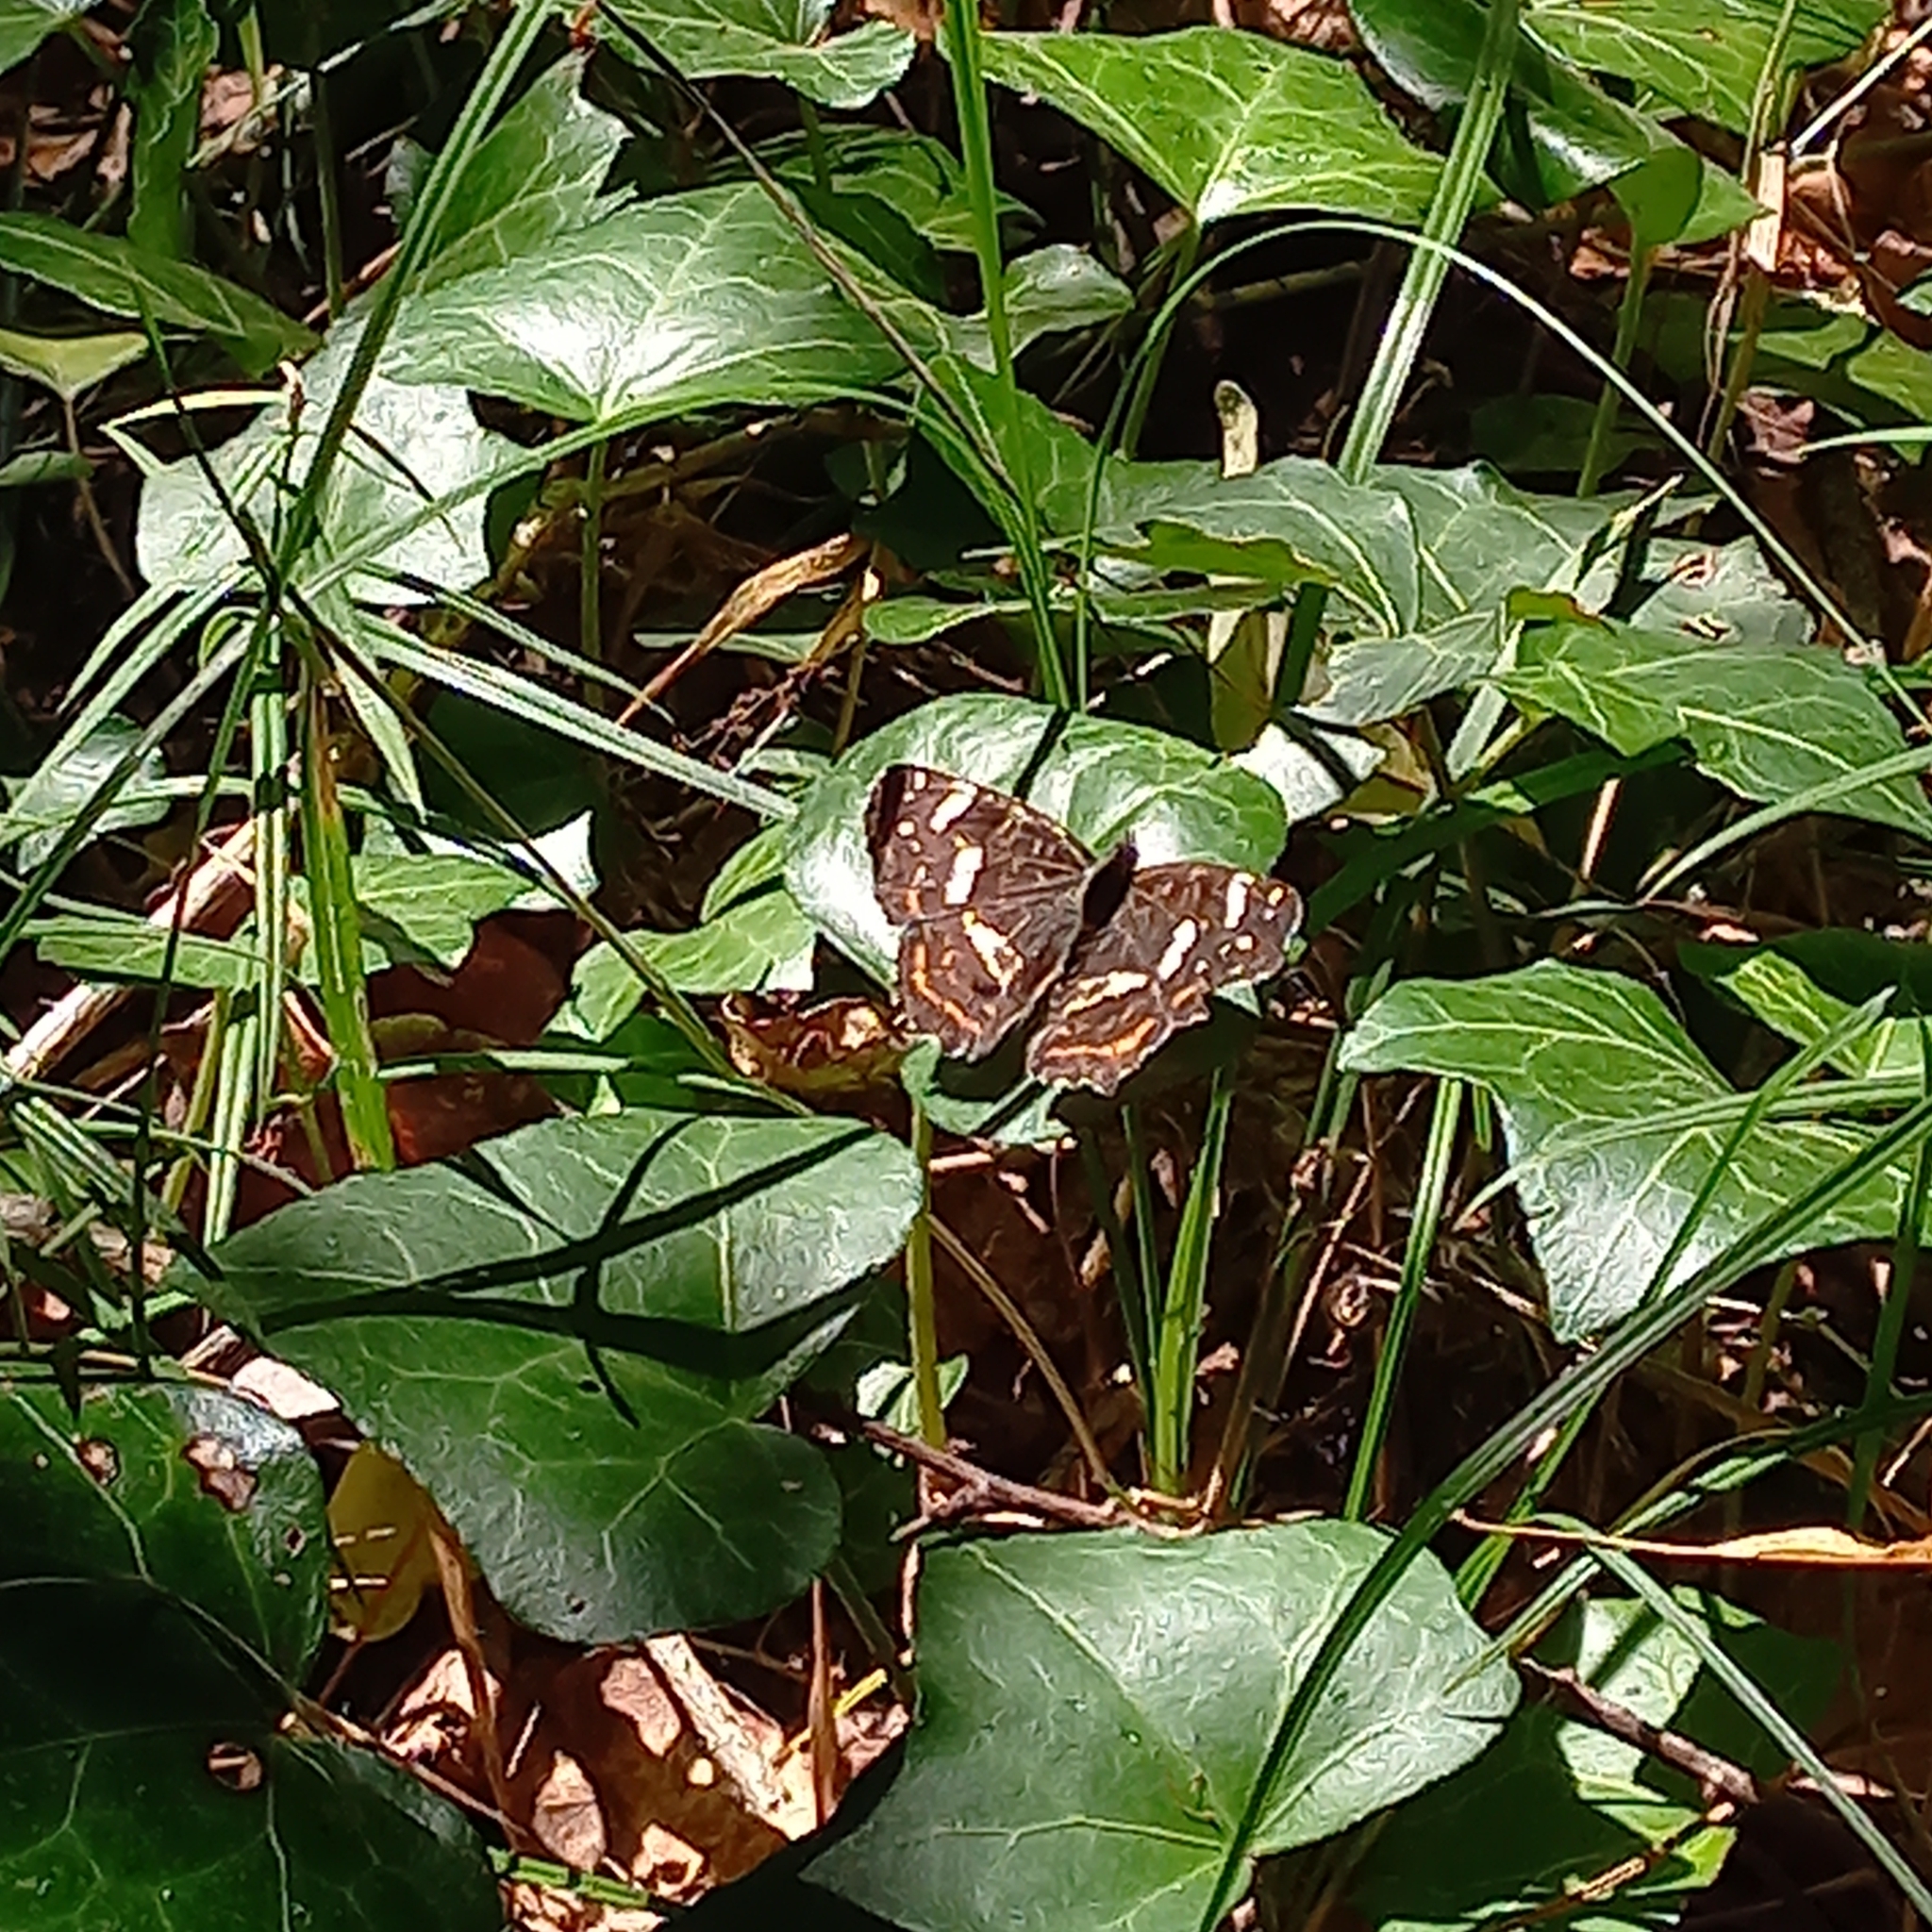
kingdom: Animalia
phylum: Arthropoda
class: Insecta
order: Lepidoptera
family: Nymphalidae
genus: Araschnia
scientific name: Araschnia levana
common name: Map butterfly
